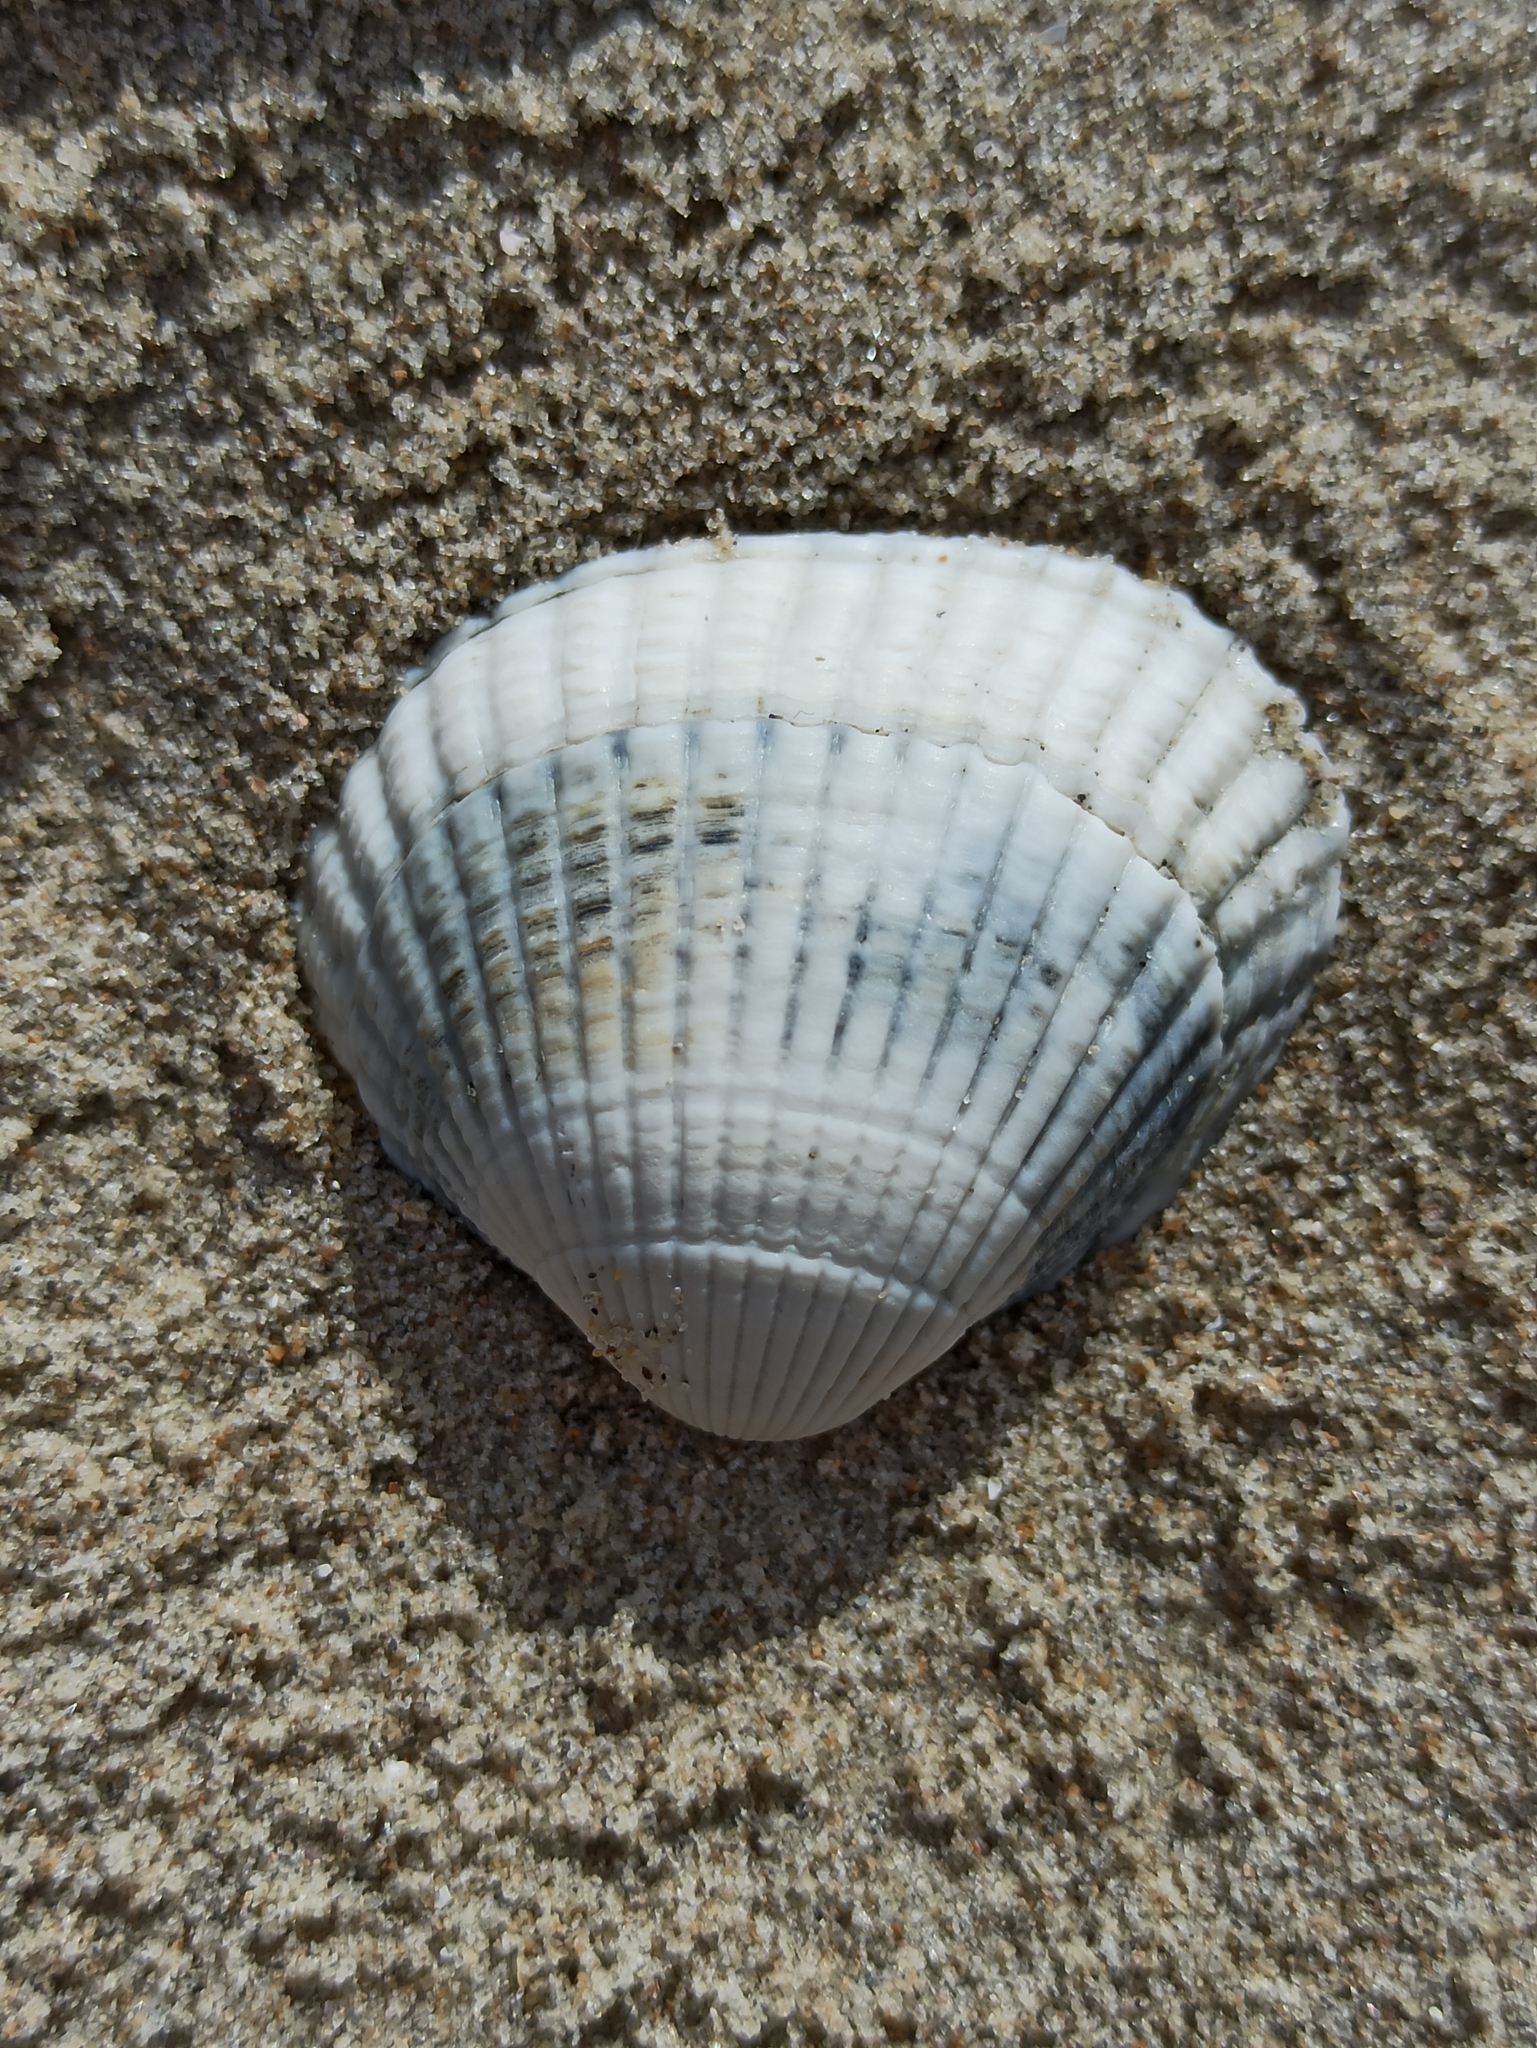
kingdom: Animalia
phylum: Mollusca
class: Bivalvia
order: Cardiida
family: Cardiidae
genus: Cerastoderma
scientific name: Cerastoderma edule
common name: Common cockle
